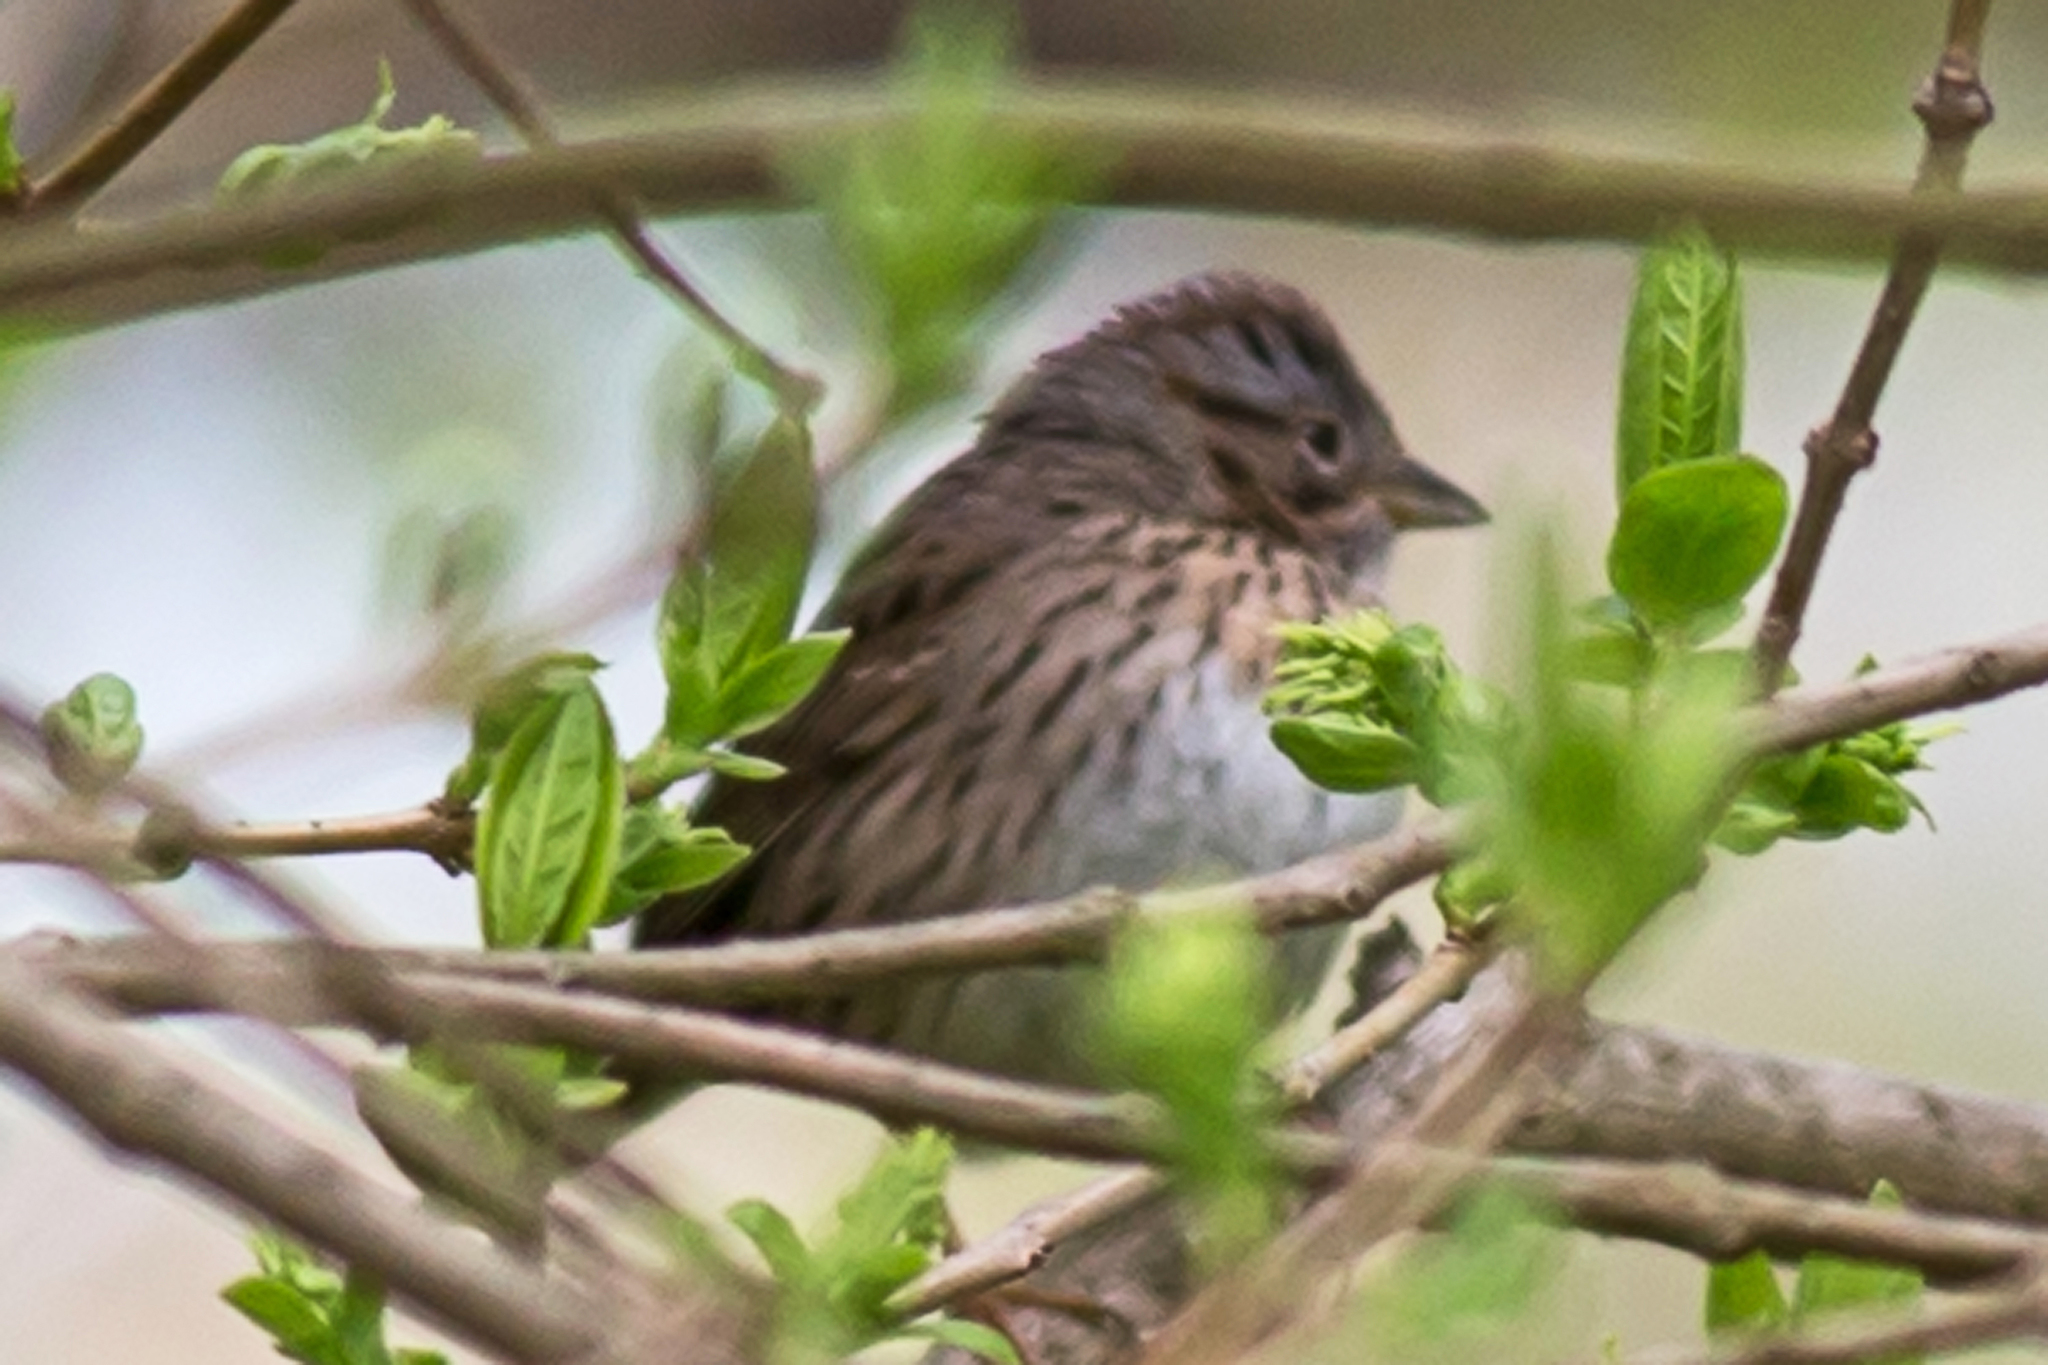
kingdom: Animalia
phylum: Chordata
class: Aves
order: Passeriformes
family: Passerellidae
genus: Melospiza
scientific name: Melospiza lincolnii
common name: Lincoln's sparrow
